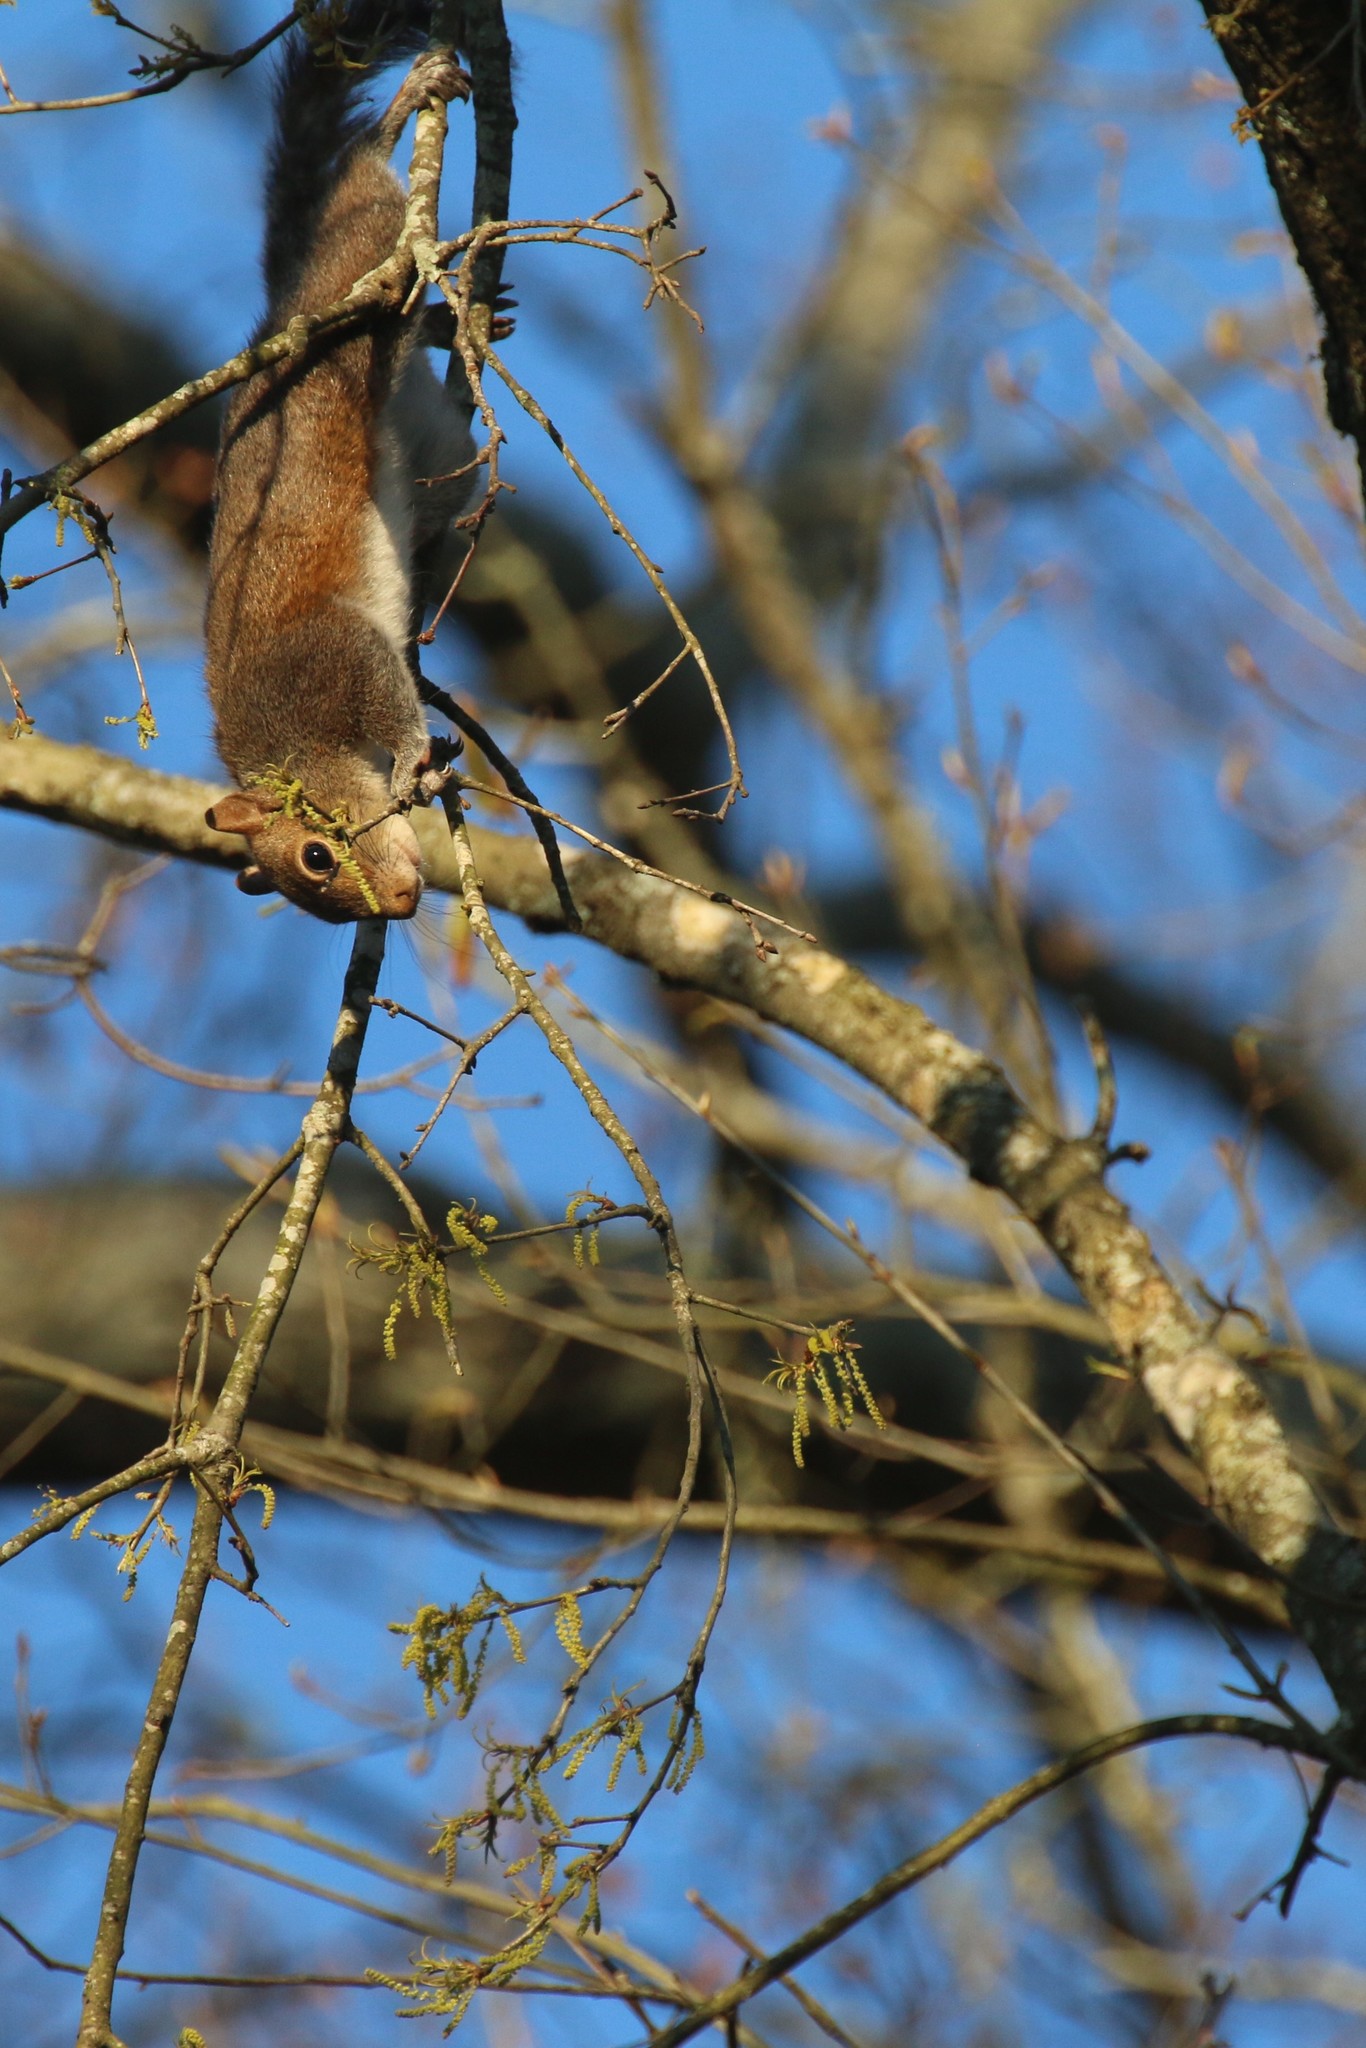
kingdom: Animalia
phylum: Chordata
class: Mammalia
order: Rodentia
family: Sciuridae
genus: Sciurus
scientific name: Sciurus carolinensis
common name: Eastern gray squirrel
